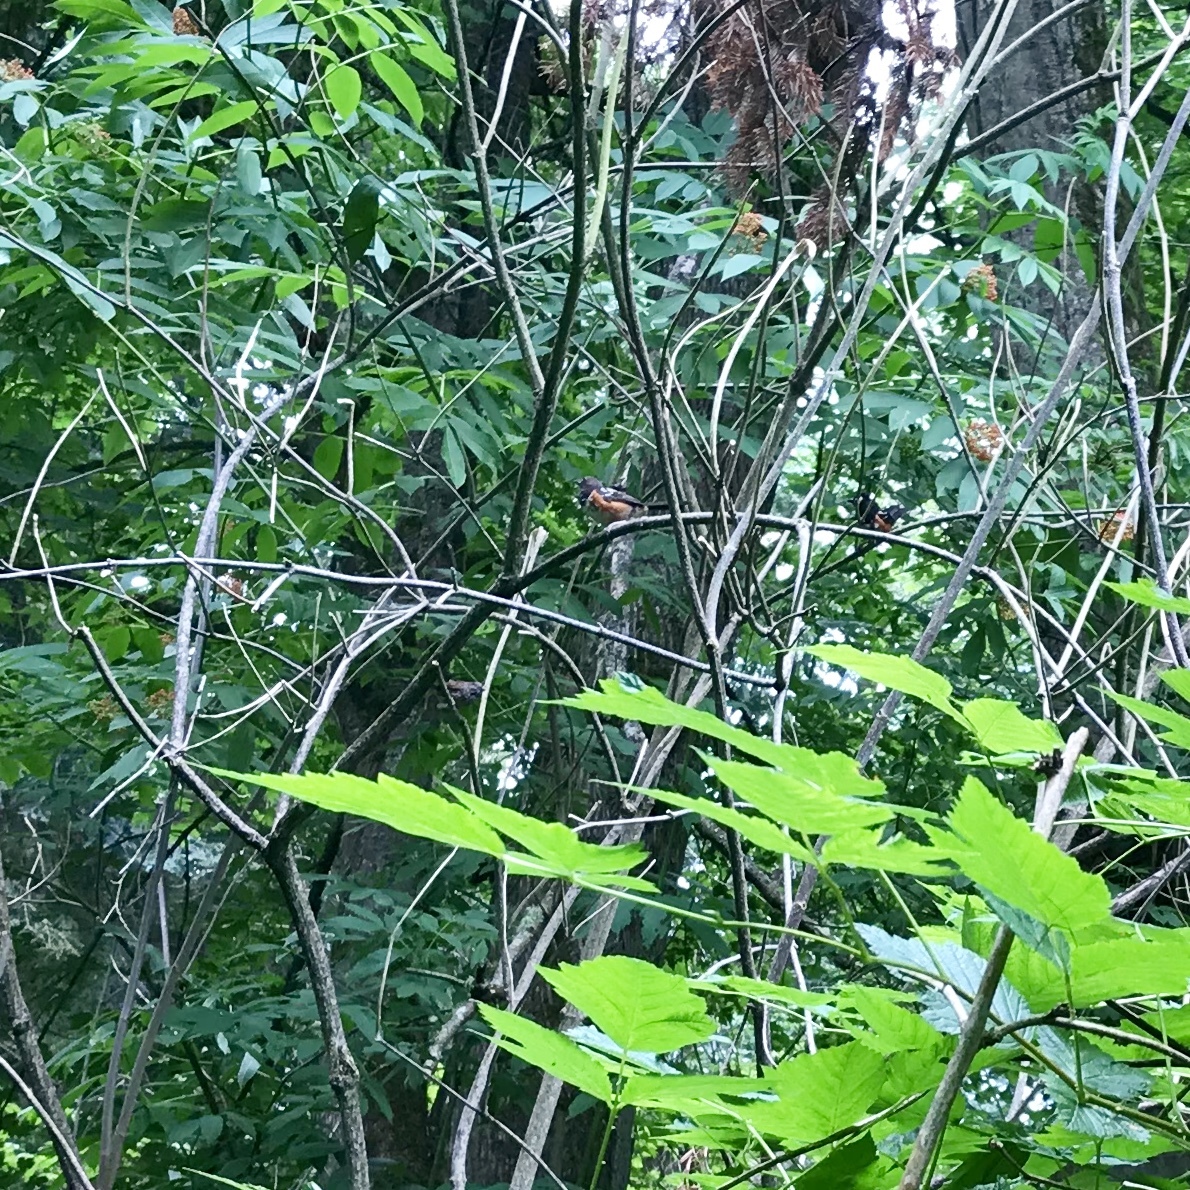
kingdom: Animalia
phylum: Chordata
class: Aves
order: Passeriformes
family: Passerellidae
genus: Pipilo
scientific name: Pipilo maculatus
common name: Spotted towhee
